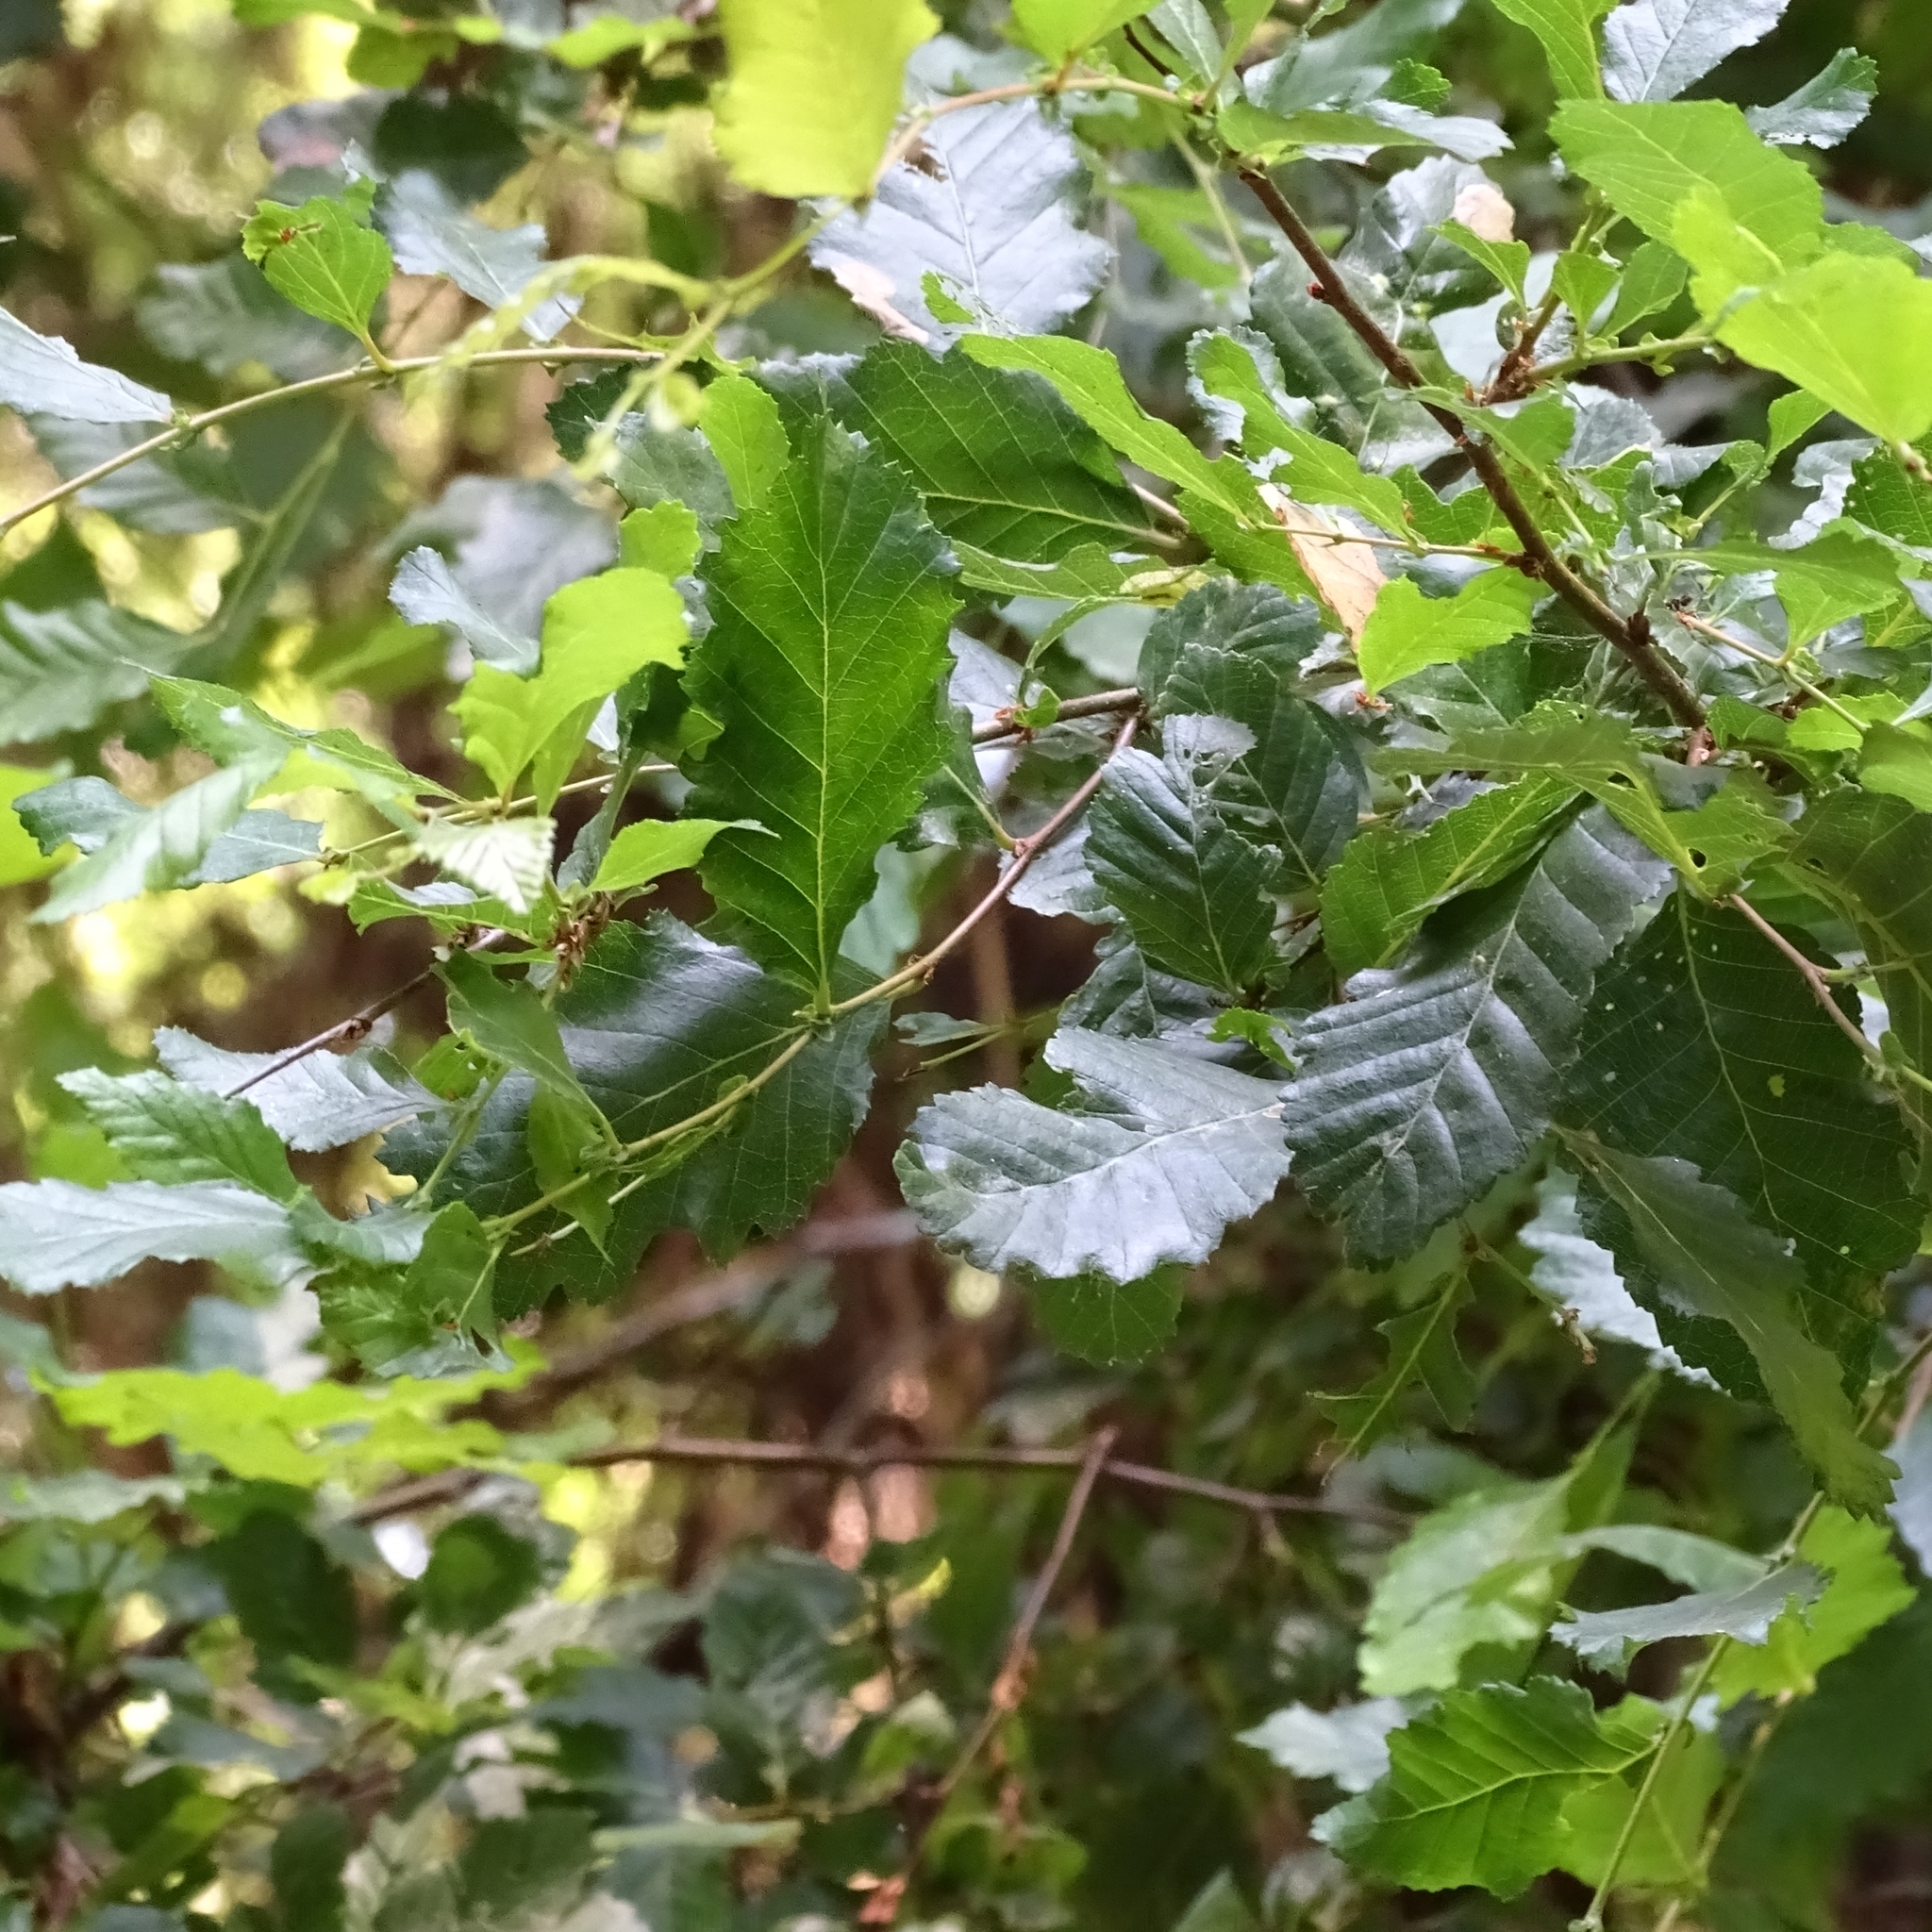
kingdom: Plantae
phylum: Tracheophyta
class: Magnoliopsida
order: Fagales
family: Nothofagaceae
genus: Nothofagus
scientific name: Nothofagus obliqua
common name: Roble beech
